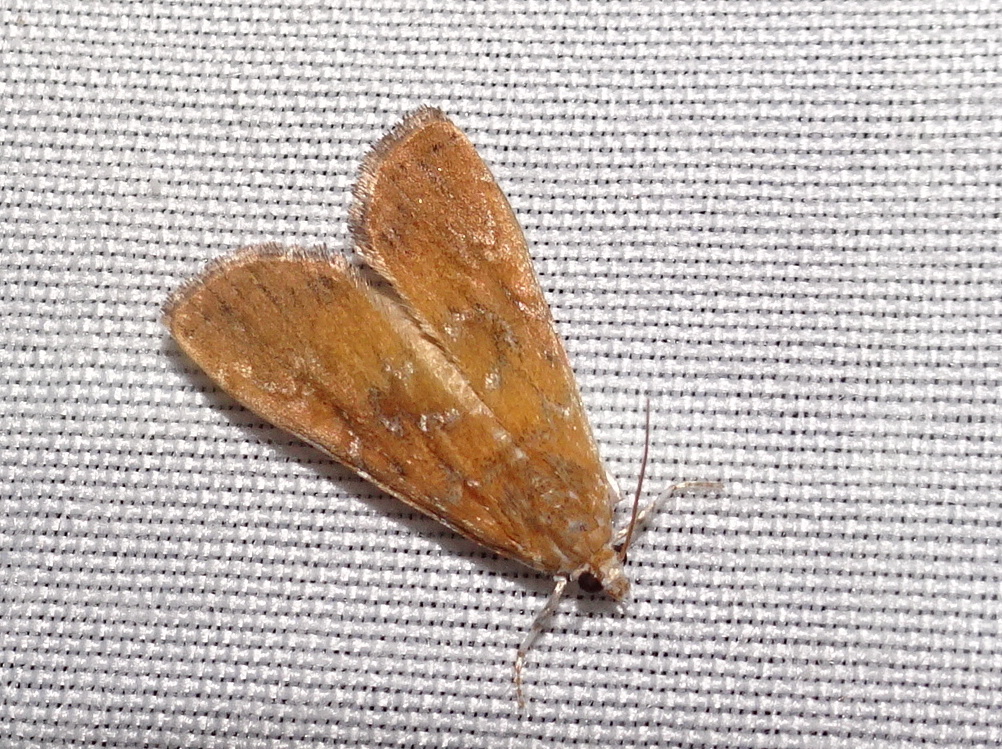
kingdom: Animalia
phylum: Arthropoda
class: Insecta
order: Lepidoptera
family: Crambidae
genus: Elophila
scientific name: Elophila gyralis
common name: Waterlily borer moth
